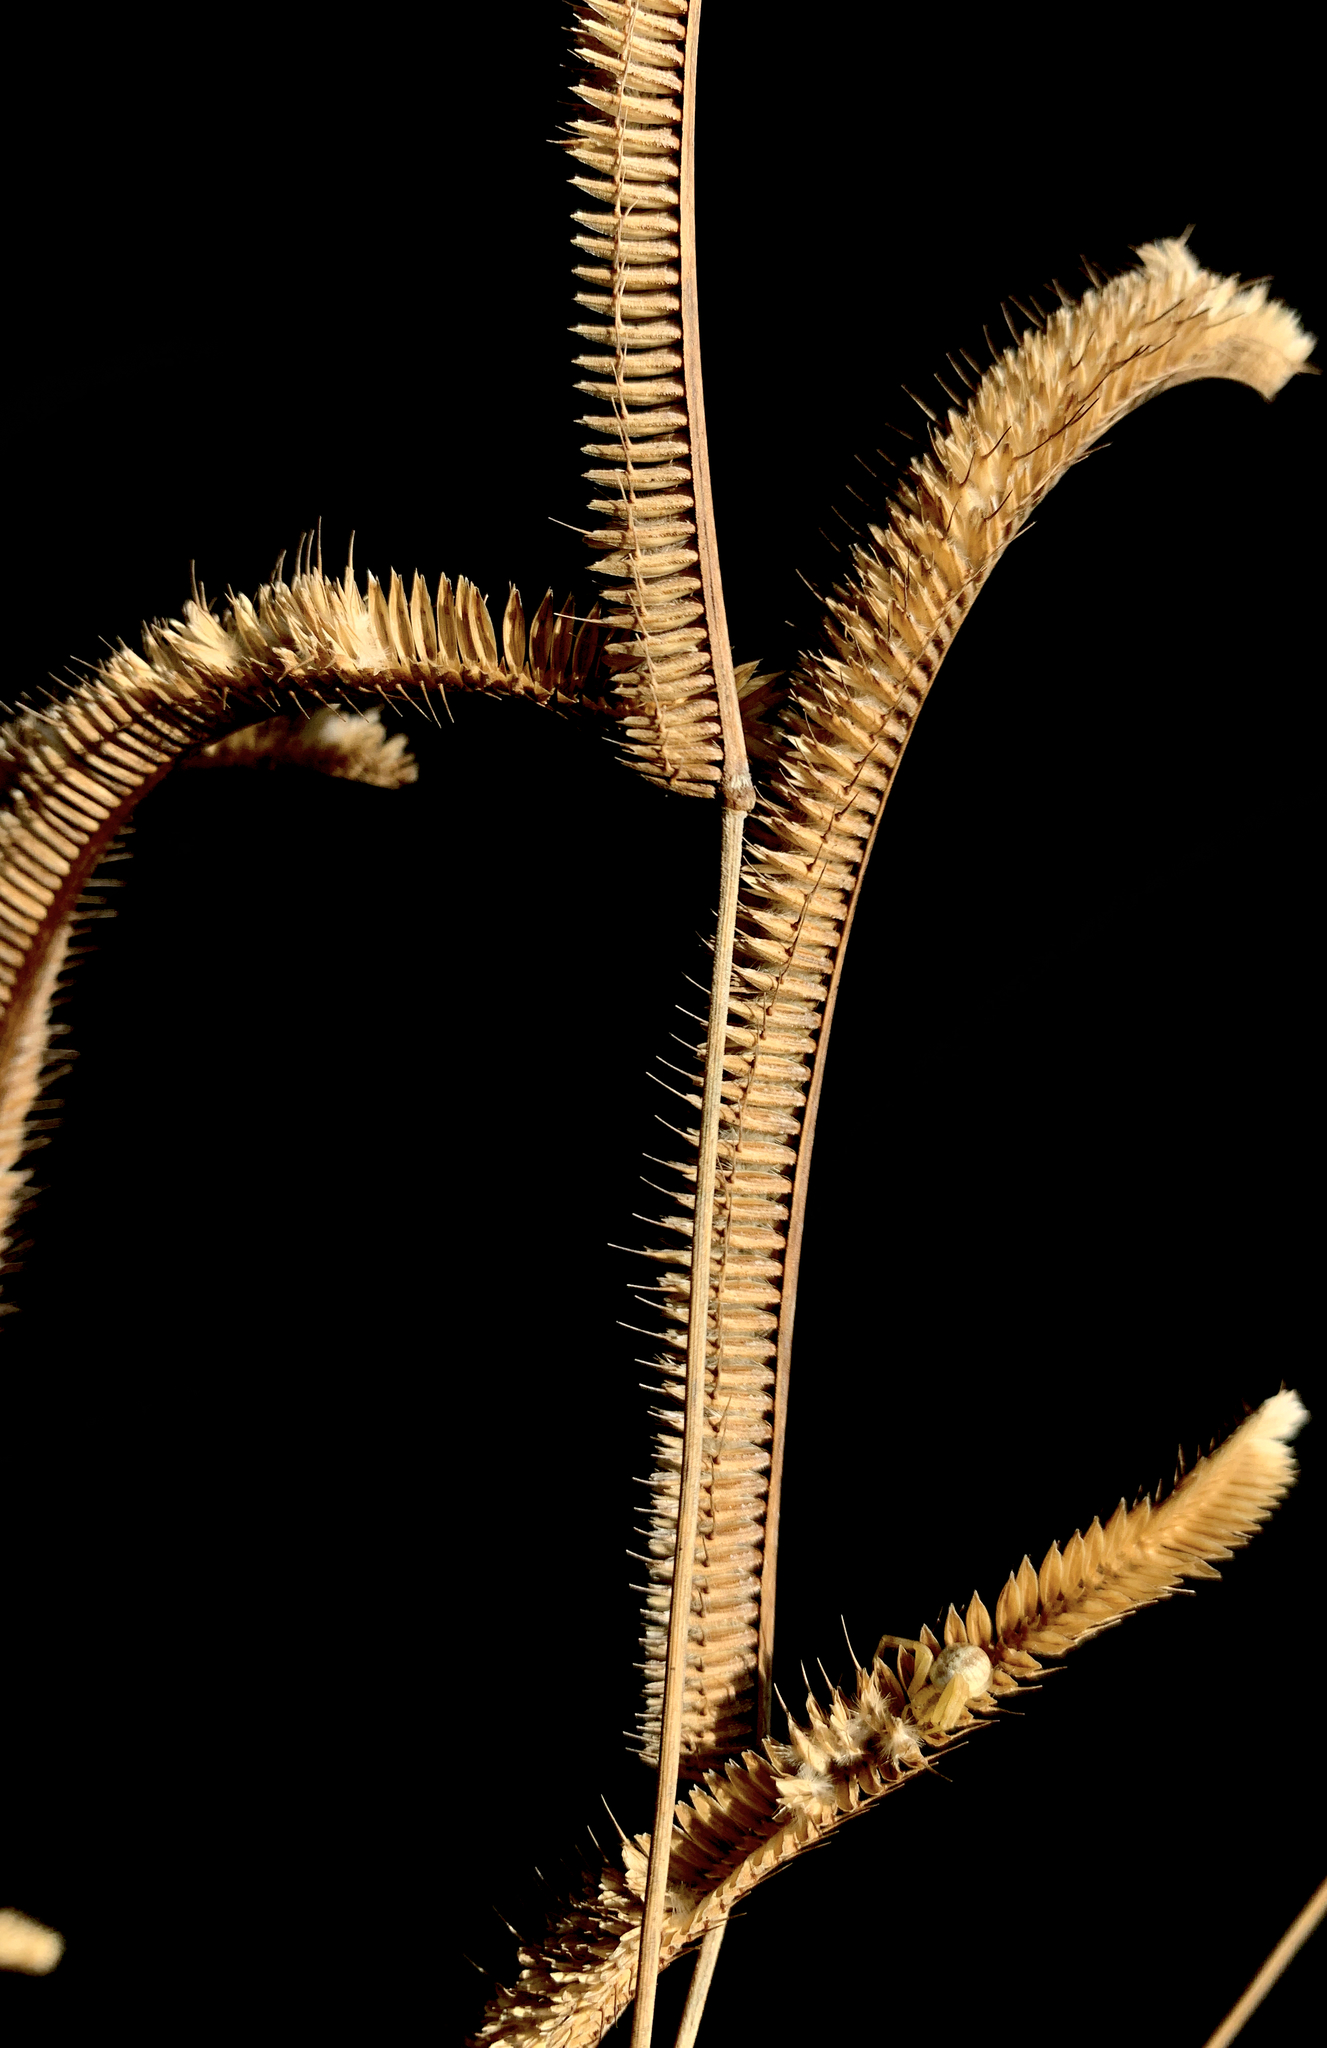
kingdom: Plantae
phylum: Tracheophyta
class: Liliopsida
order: Poales
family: Poaceae
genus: Ctenium
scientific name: Ctenium aromaticum
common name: Toothache grass
